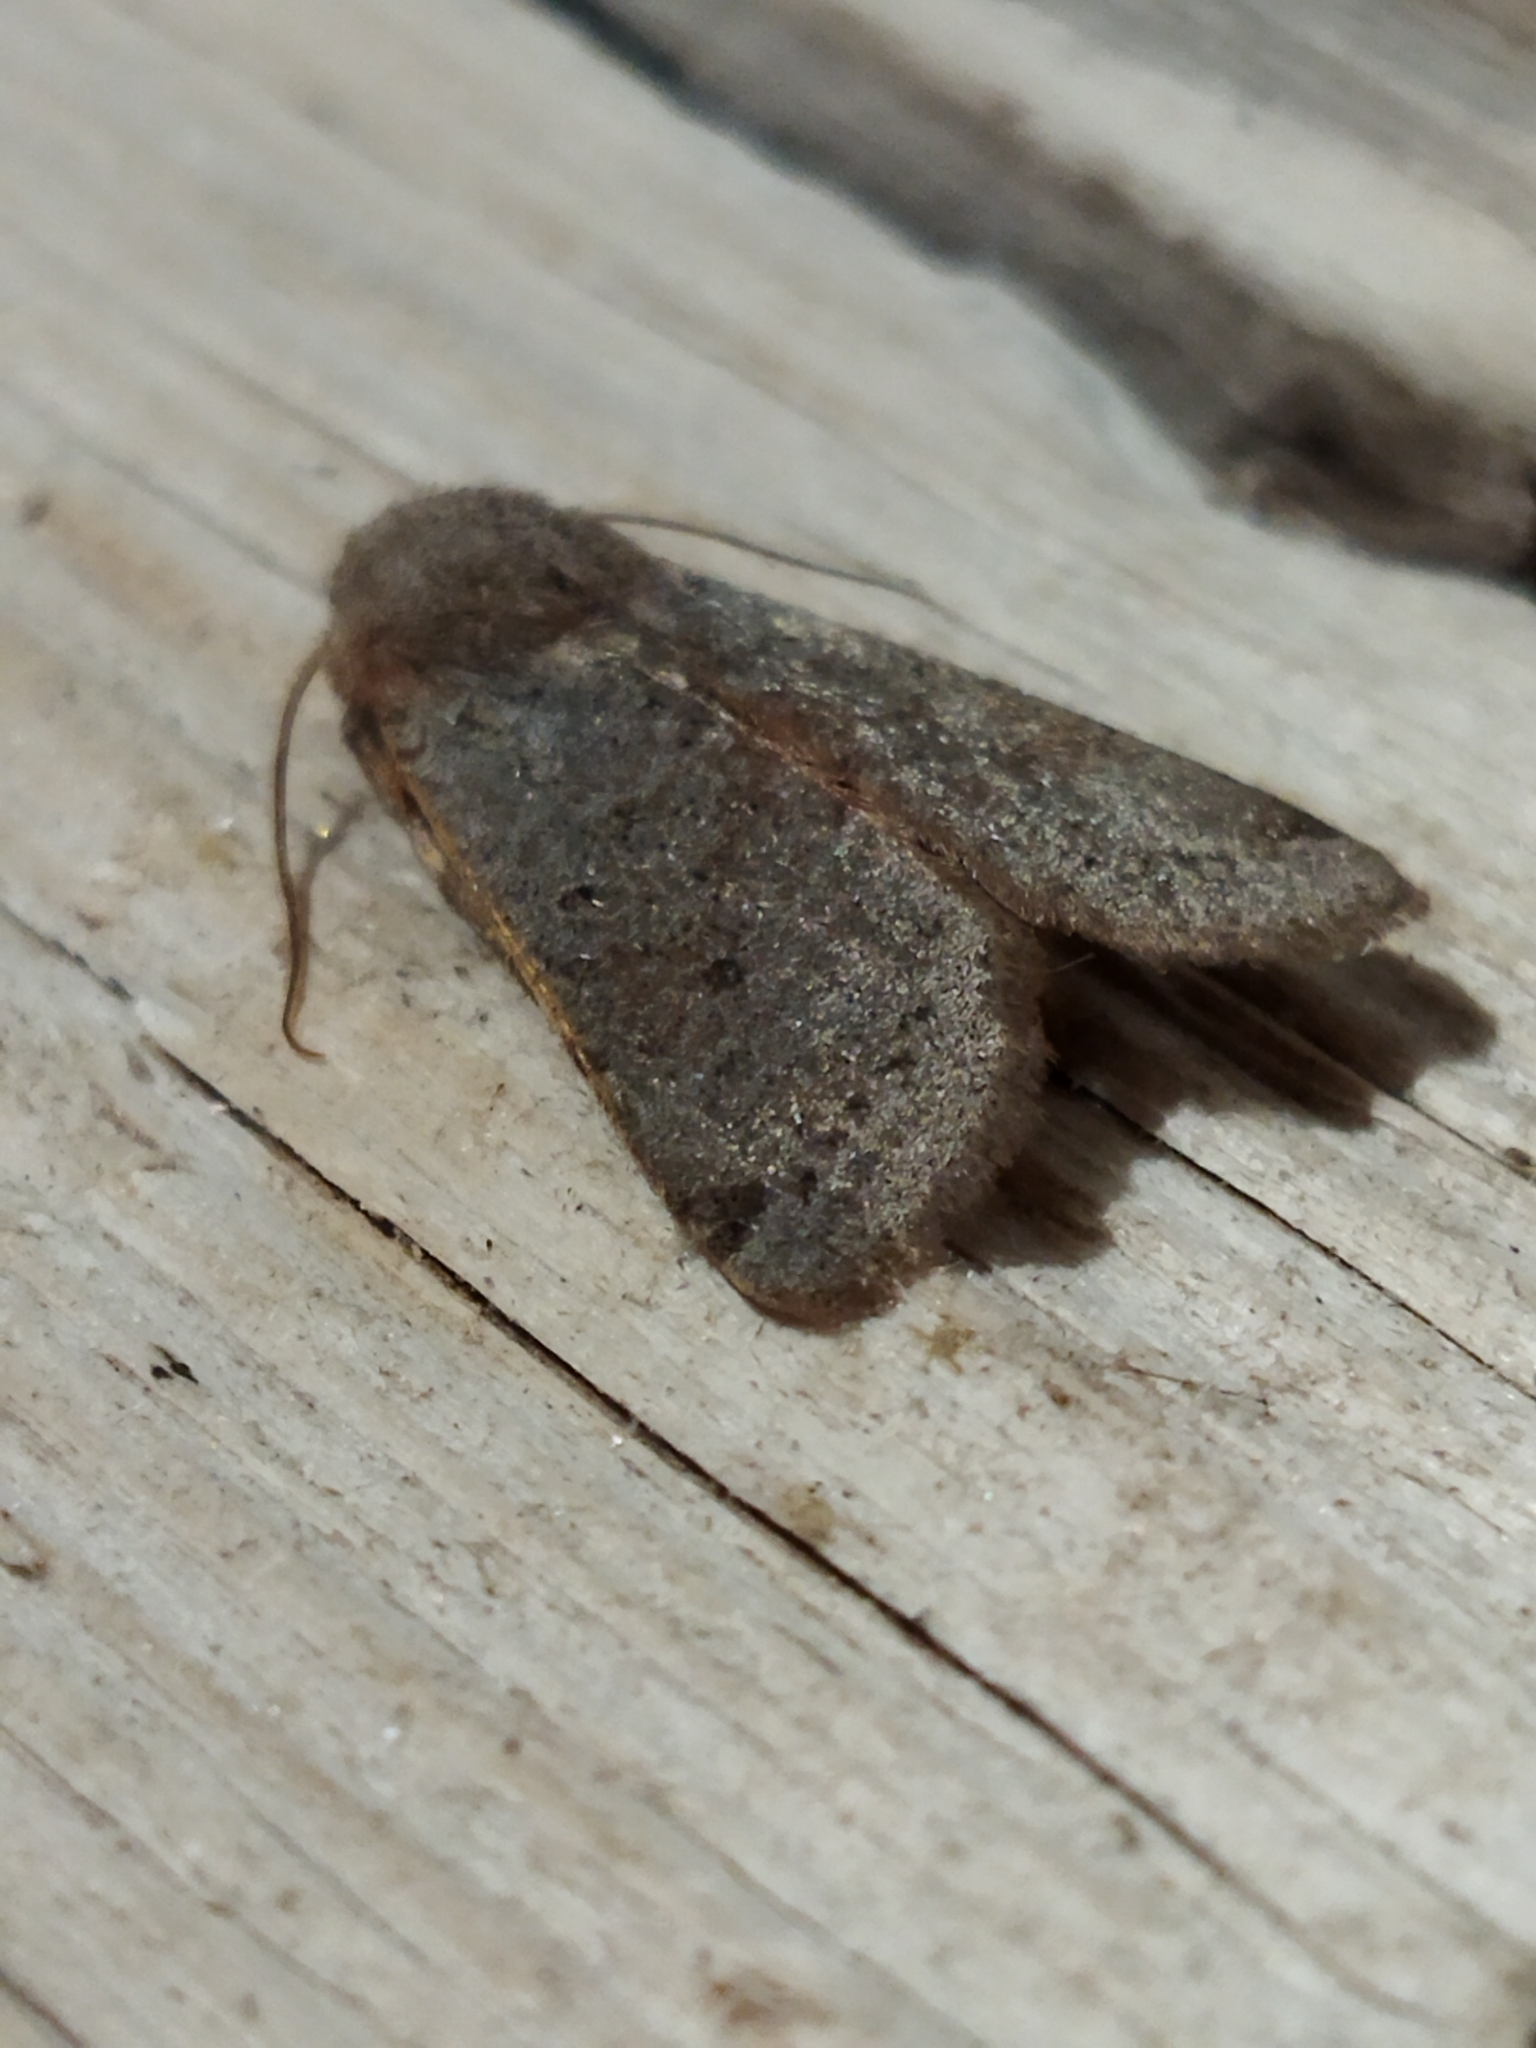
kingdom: Animalia
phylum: Arthropoda
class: Insecta
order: Lepidoptera
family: Noctuidae
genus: Agrochola
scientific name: Agrochola lychnidis
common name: Beaded chestnut
